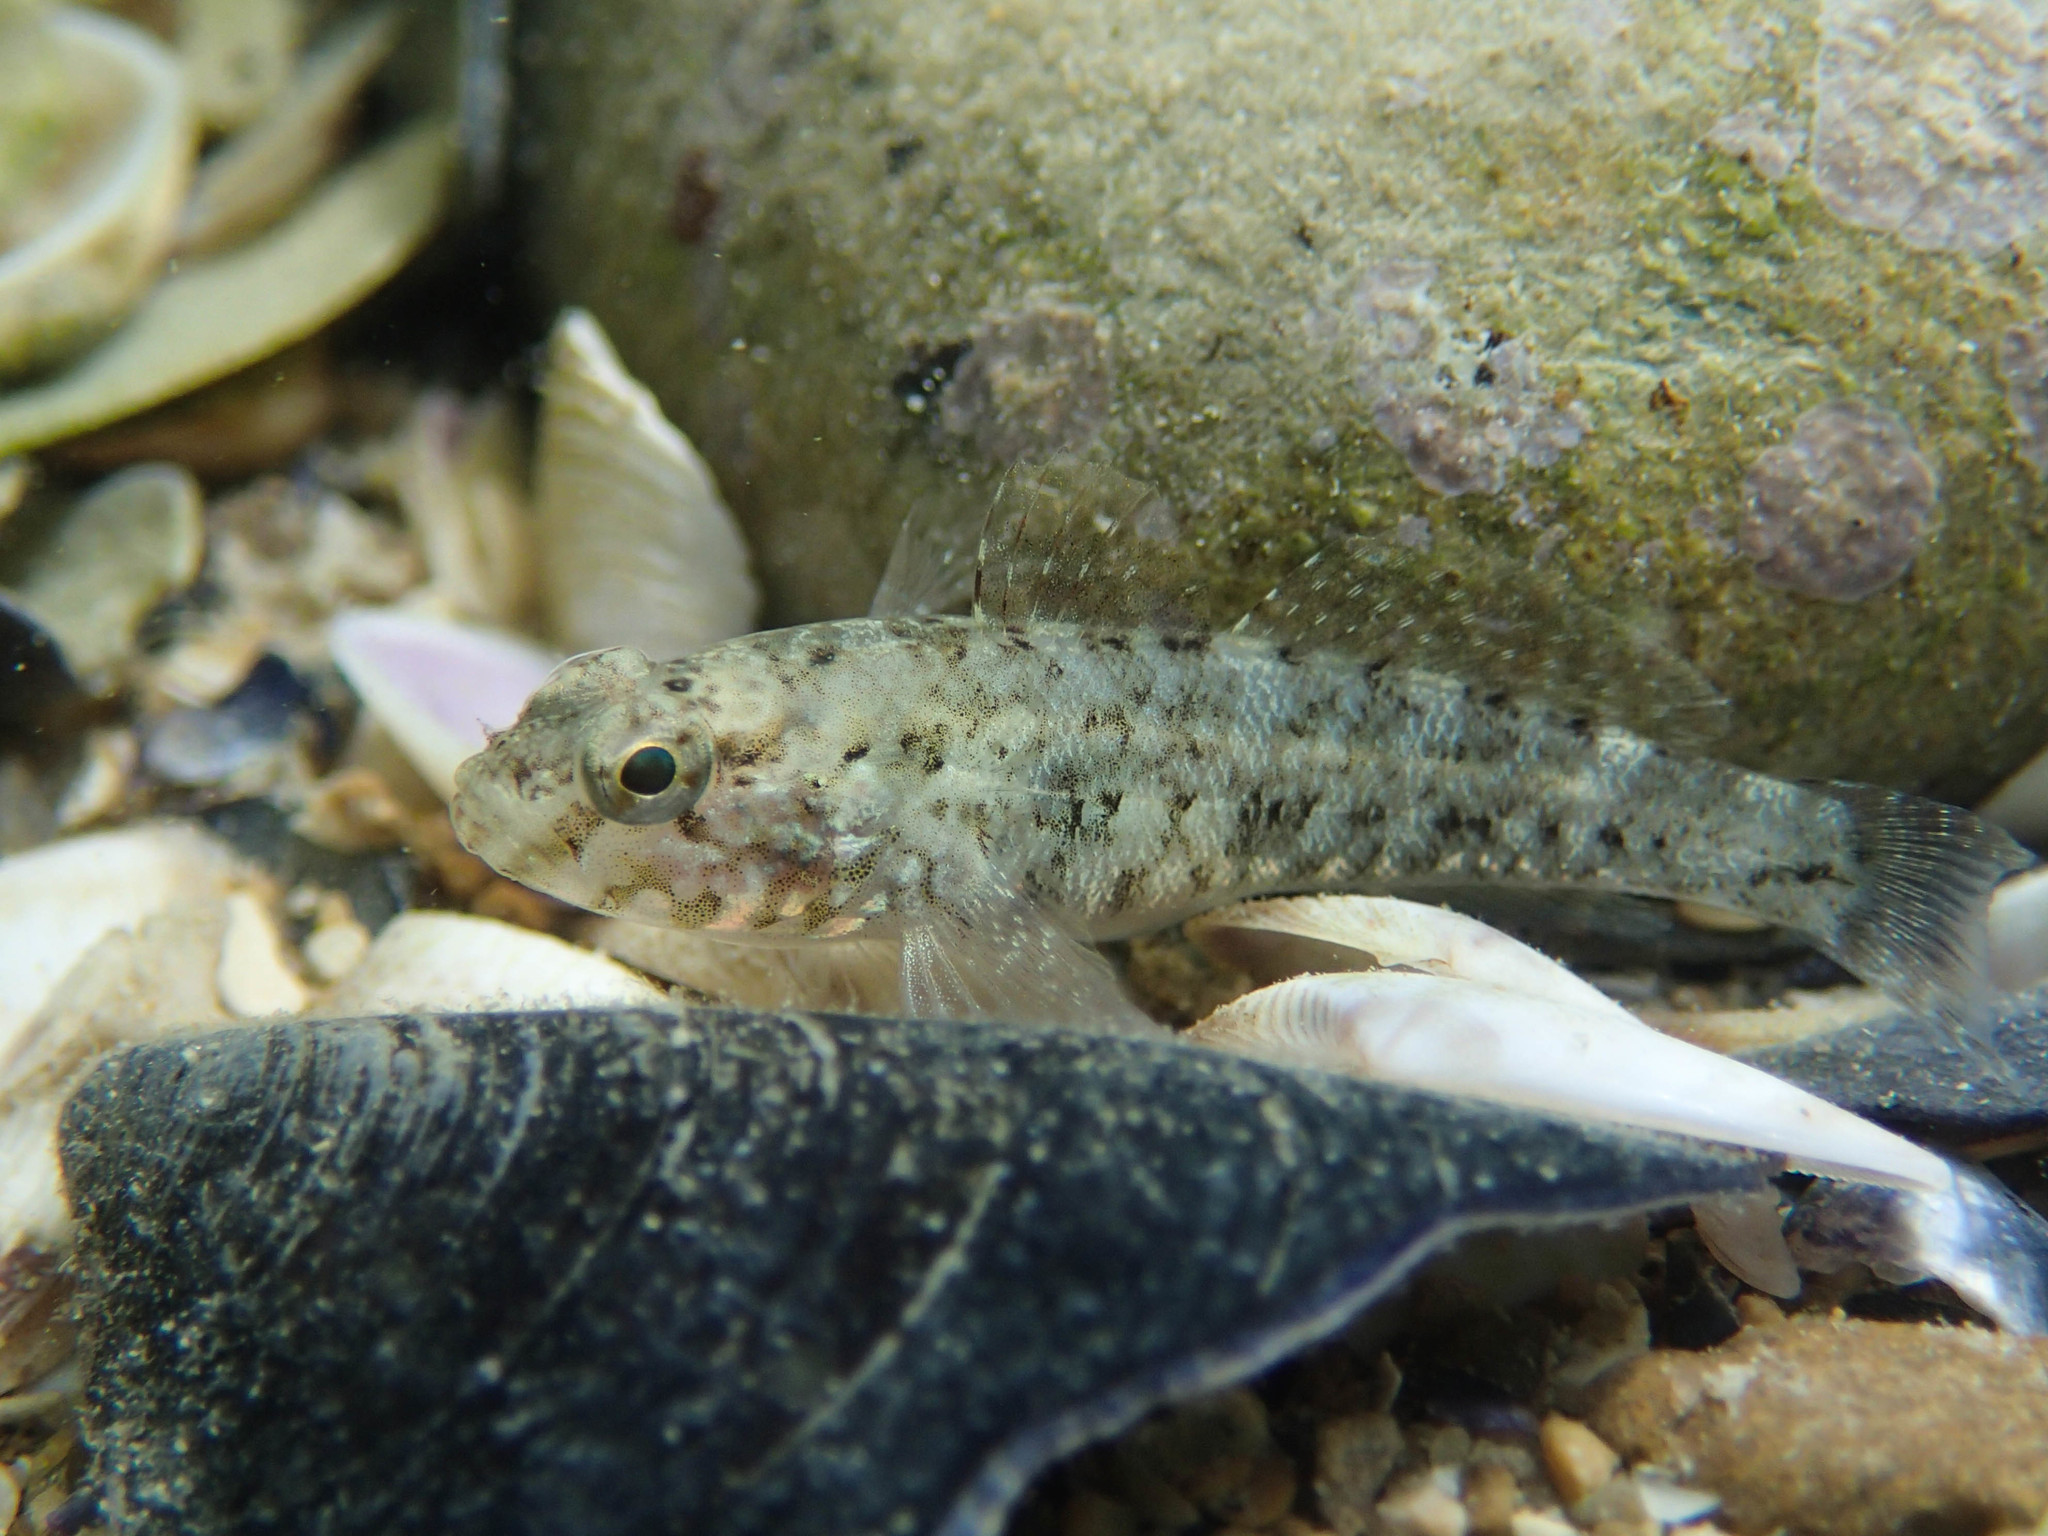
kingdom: Animalia
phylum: Chordata
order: Perciformes
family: Gobiidae
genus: Gobius
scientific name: Gobius paganellus
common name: Rock goby
